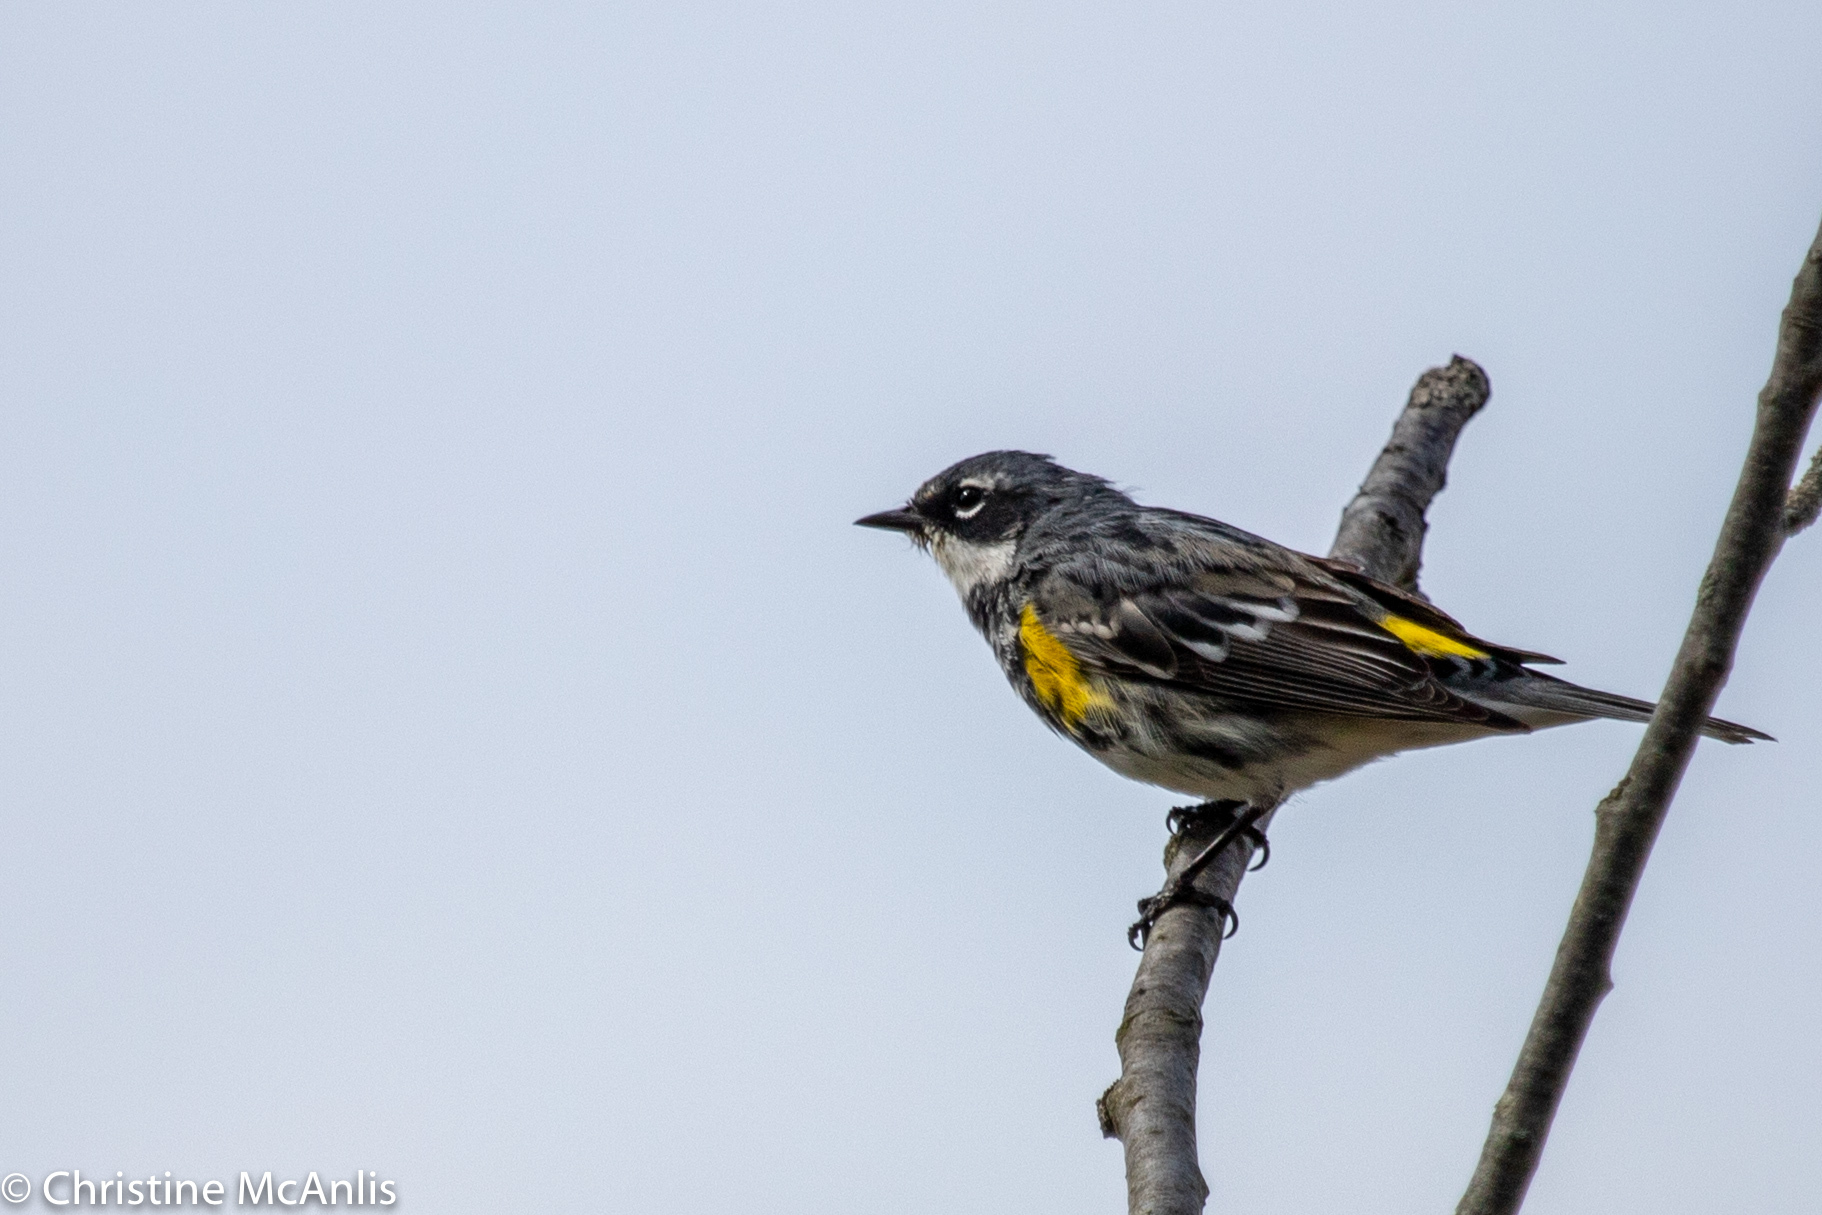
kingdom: Animalia
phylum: Chordata
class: Aves
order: Passeriformes
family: Parulidae
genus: Setophaga
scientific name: Setophaga coronata
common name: Myrtle warbler
